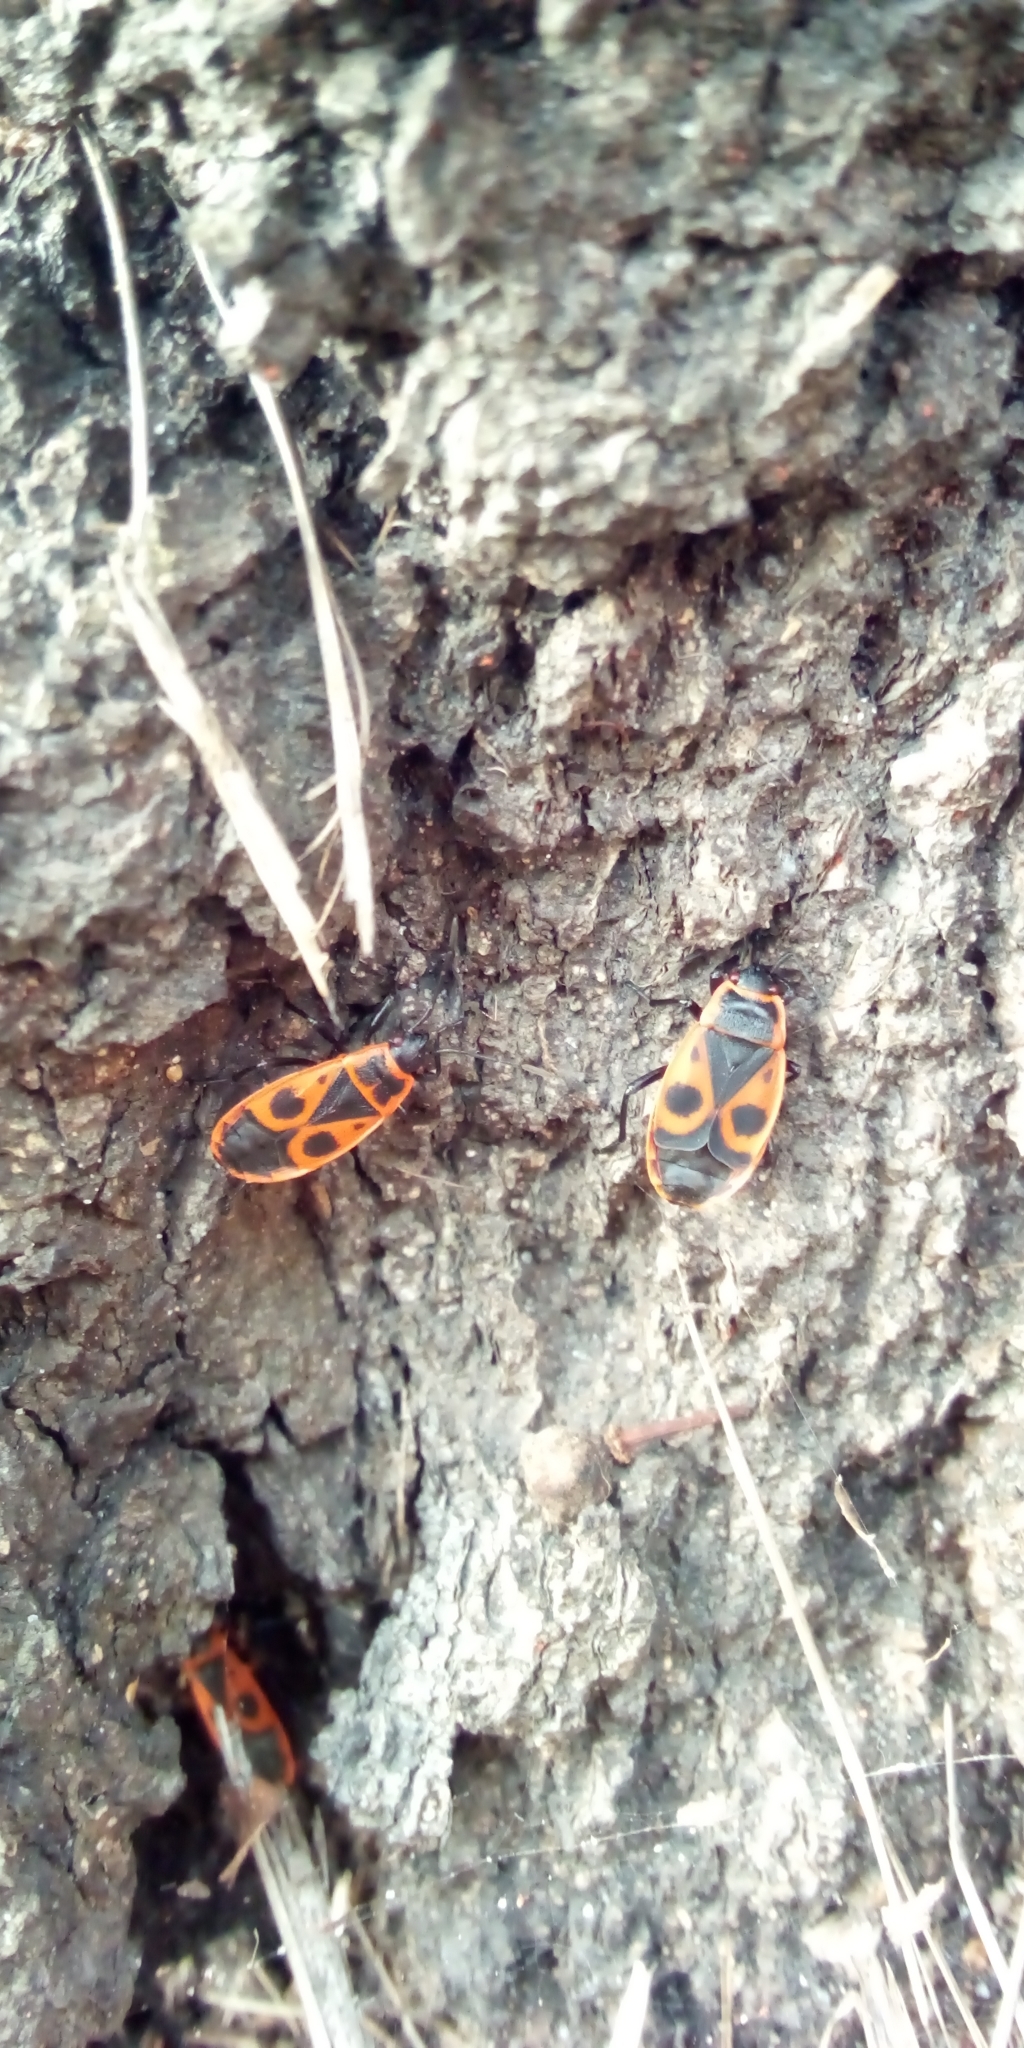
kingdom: Animalia
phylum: Arthropoda
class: Insecta
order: Hemiptera
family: Pyrrhocoridae
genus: Pyrrhocoris
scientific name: Pyrrhocoris apterus
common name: Firebug
